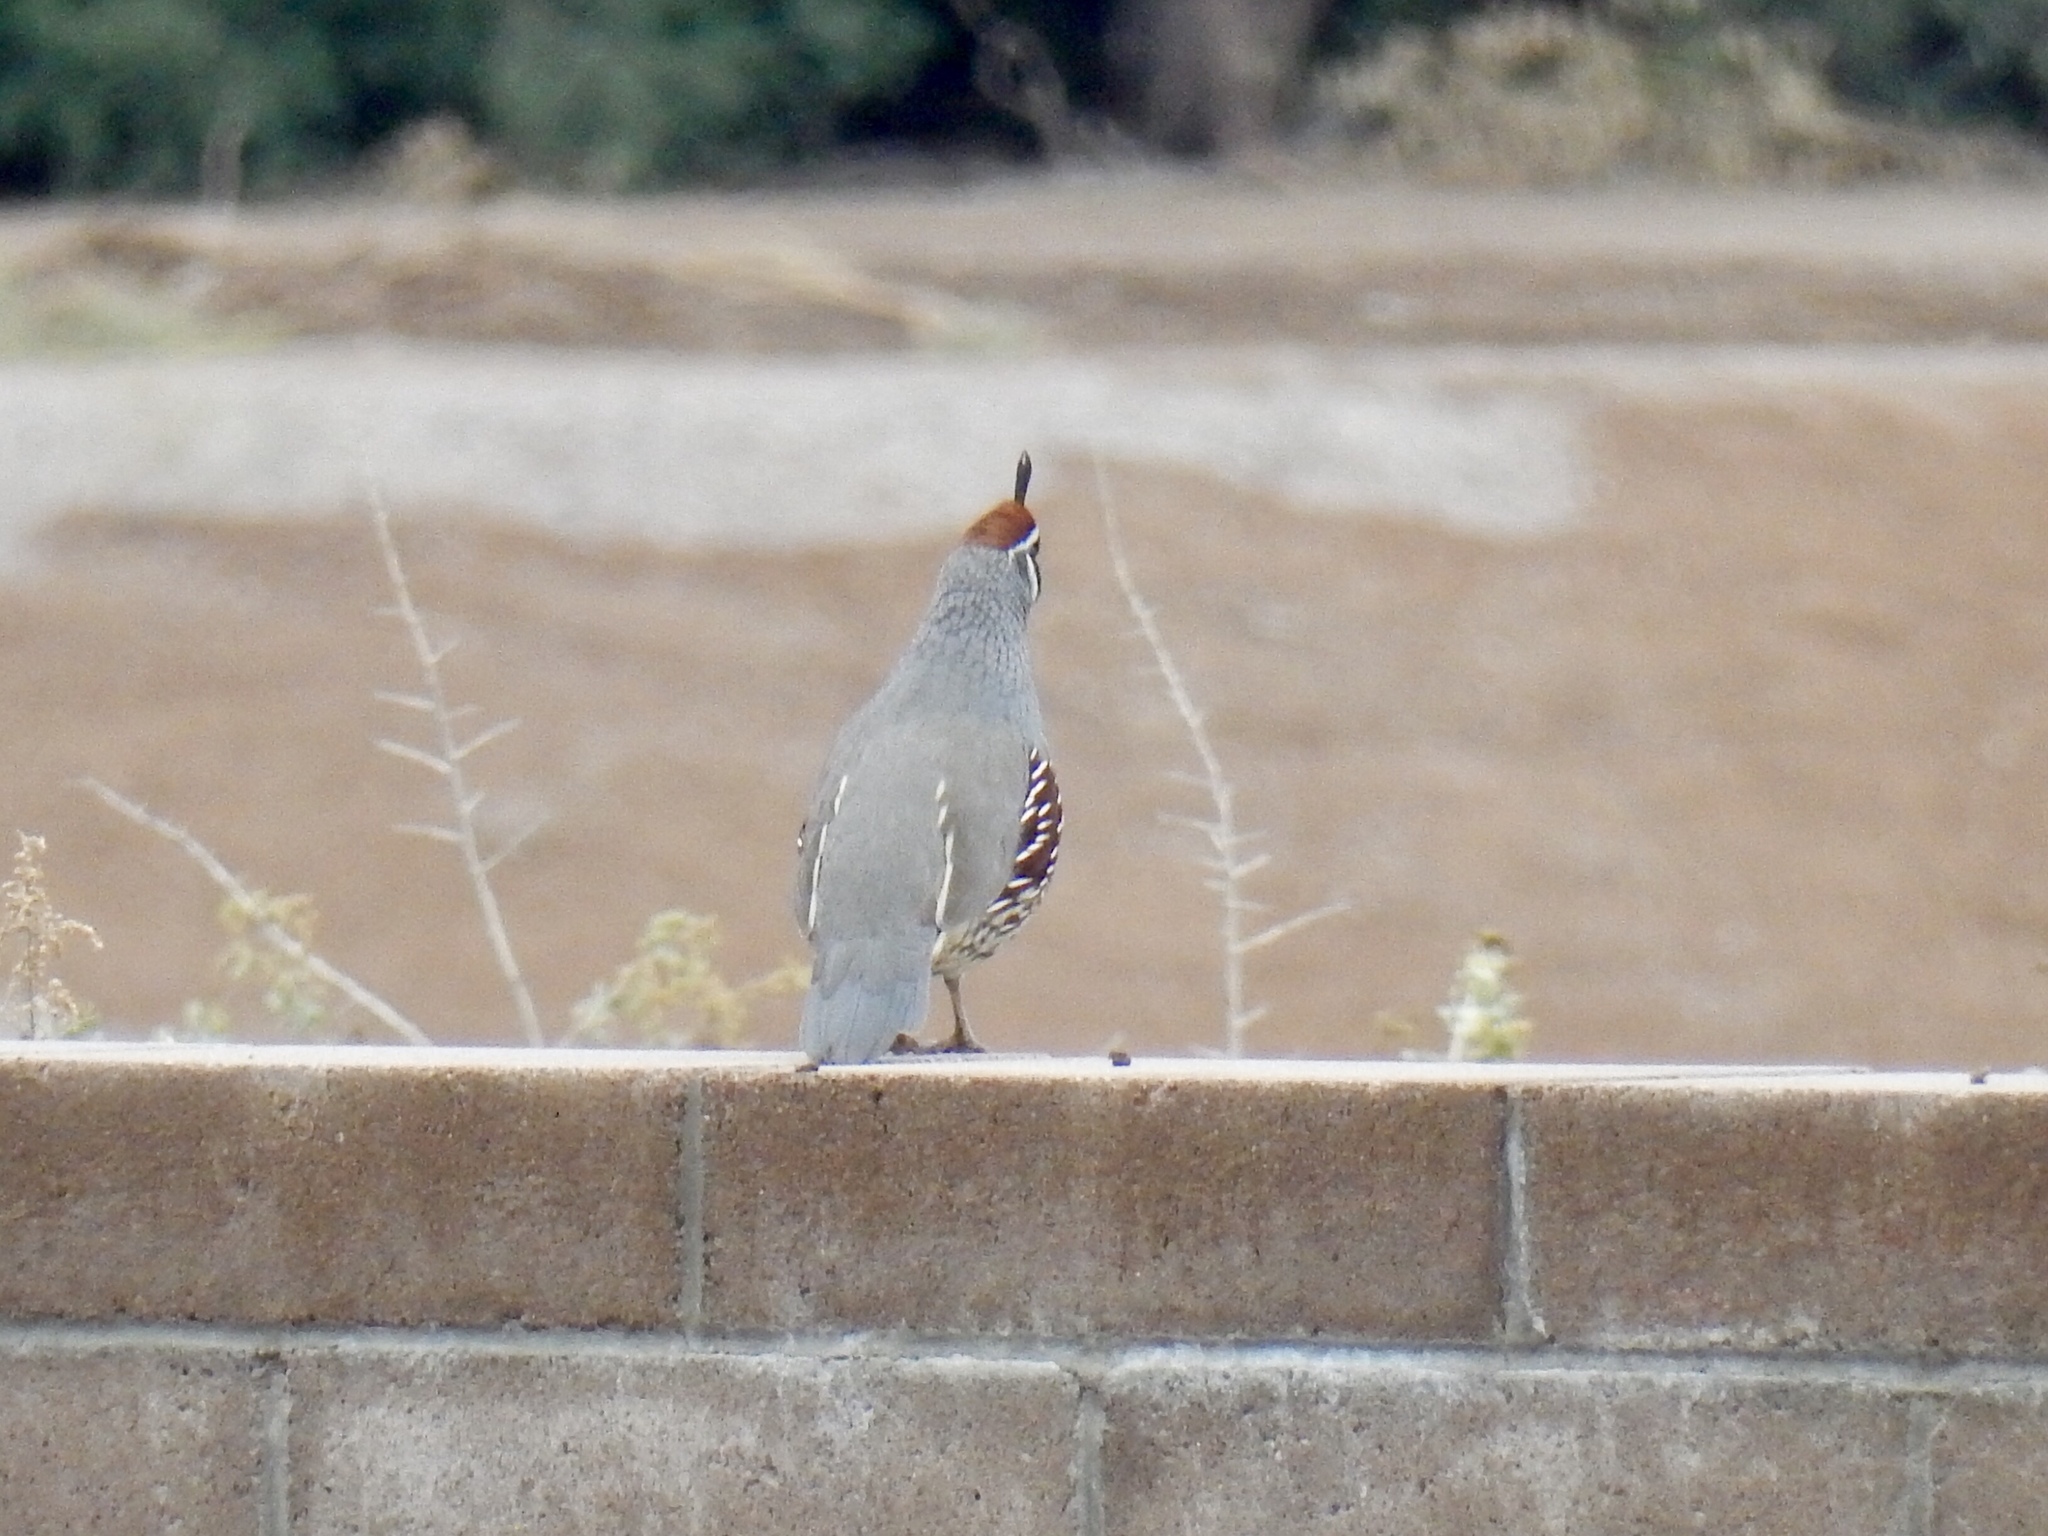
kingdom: Animalia
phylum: Chordata
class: Aves
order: Galliformes
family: Odontophoridae
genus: Callipepla
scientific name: Callipepla gambelii
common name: Gambel's quail
